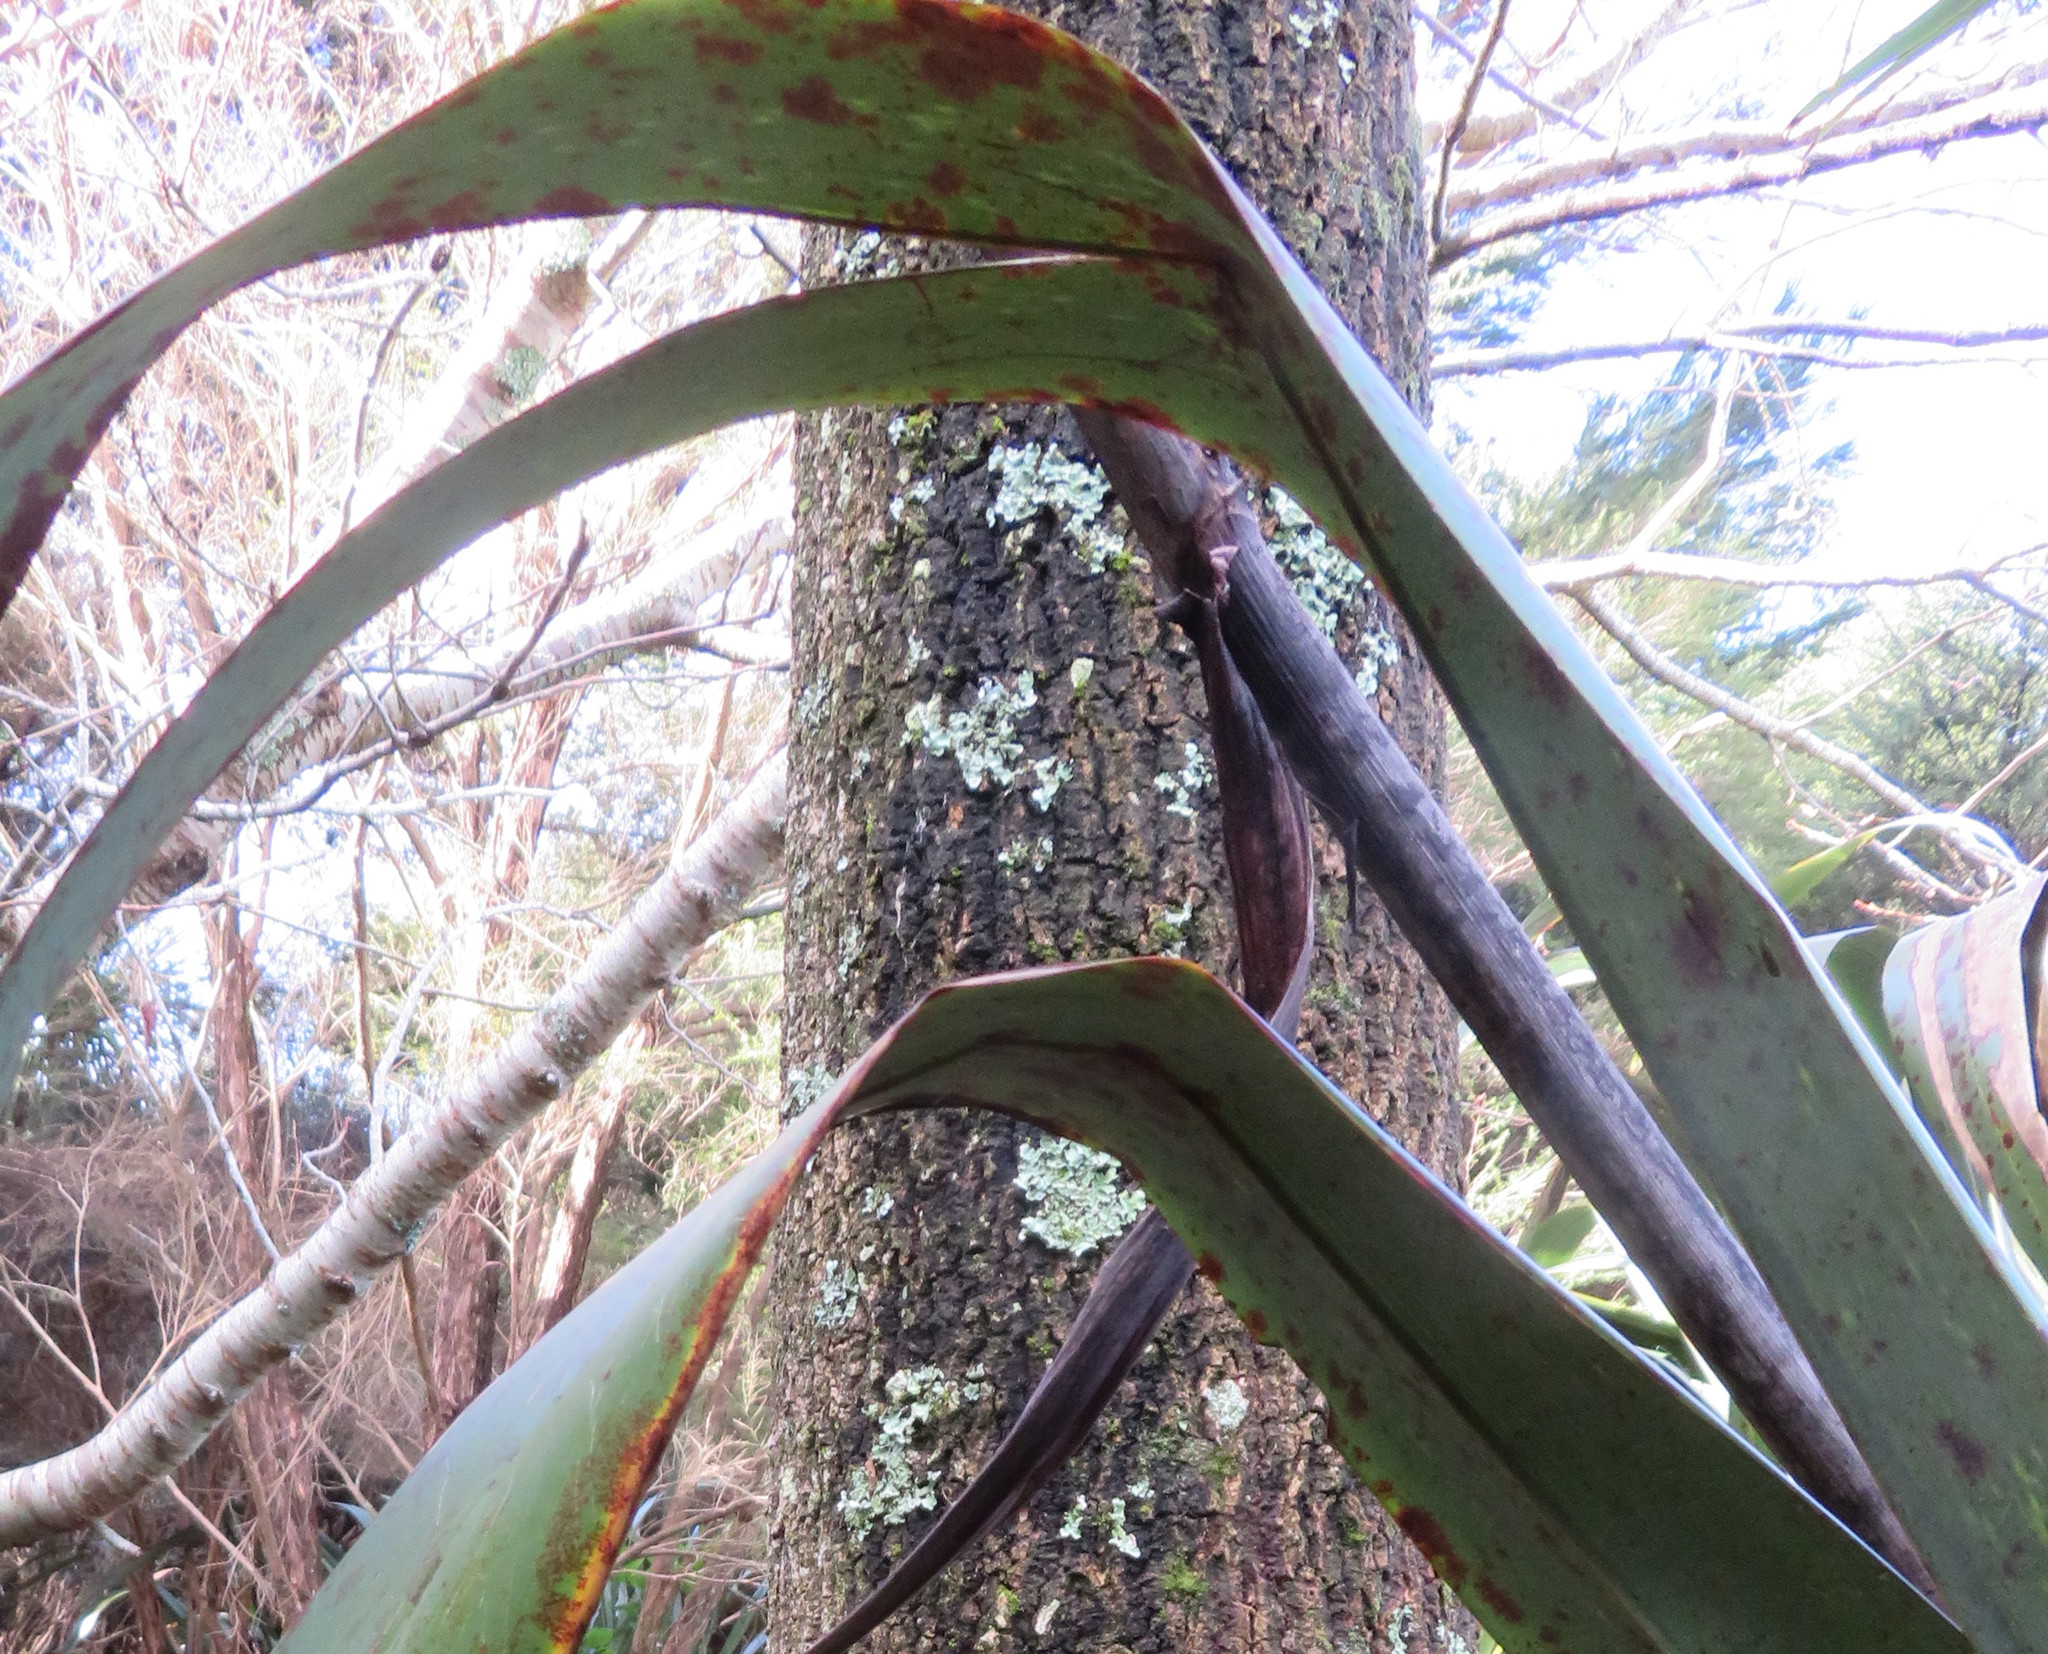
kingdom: Plantae
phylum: Tracheophyta
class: Liliopsida
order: Asparagales
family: Asparagaceae
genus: Cordyline
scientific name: Cordyline australis
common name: Cabbage-palm
